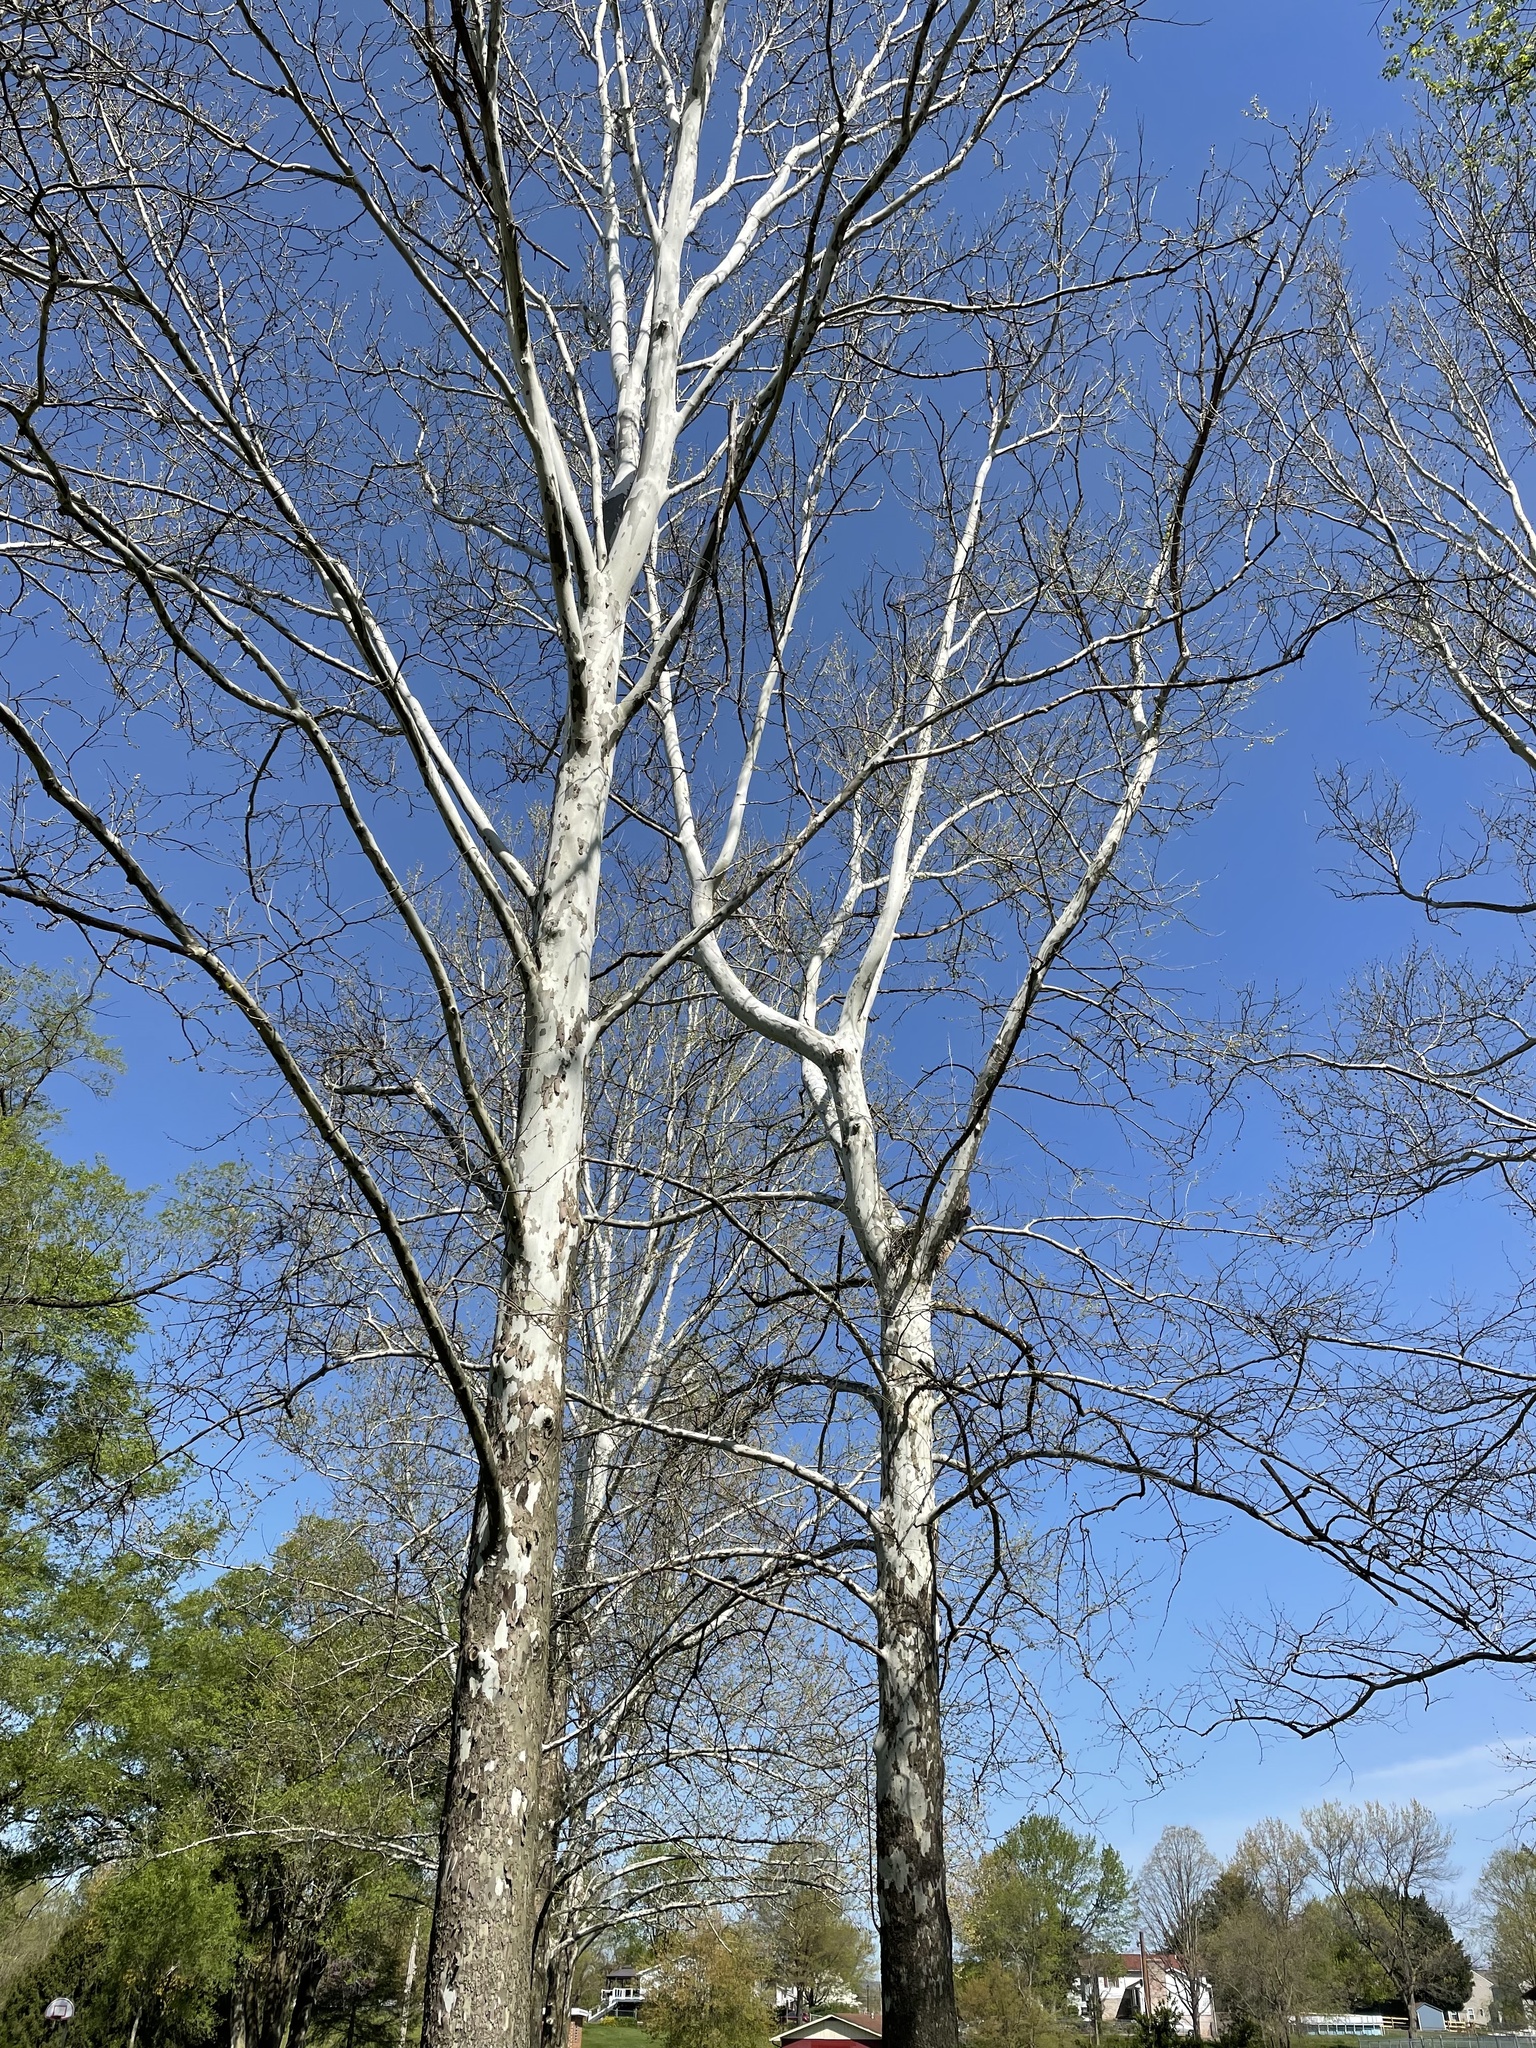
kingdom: Plantae
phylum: Tracheophyta
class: Magnoliopsida
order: Proteales
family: Platanaceae
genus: Platanus
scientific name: Platanus occidentalis
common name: American sycamore
